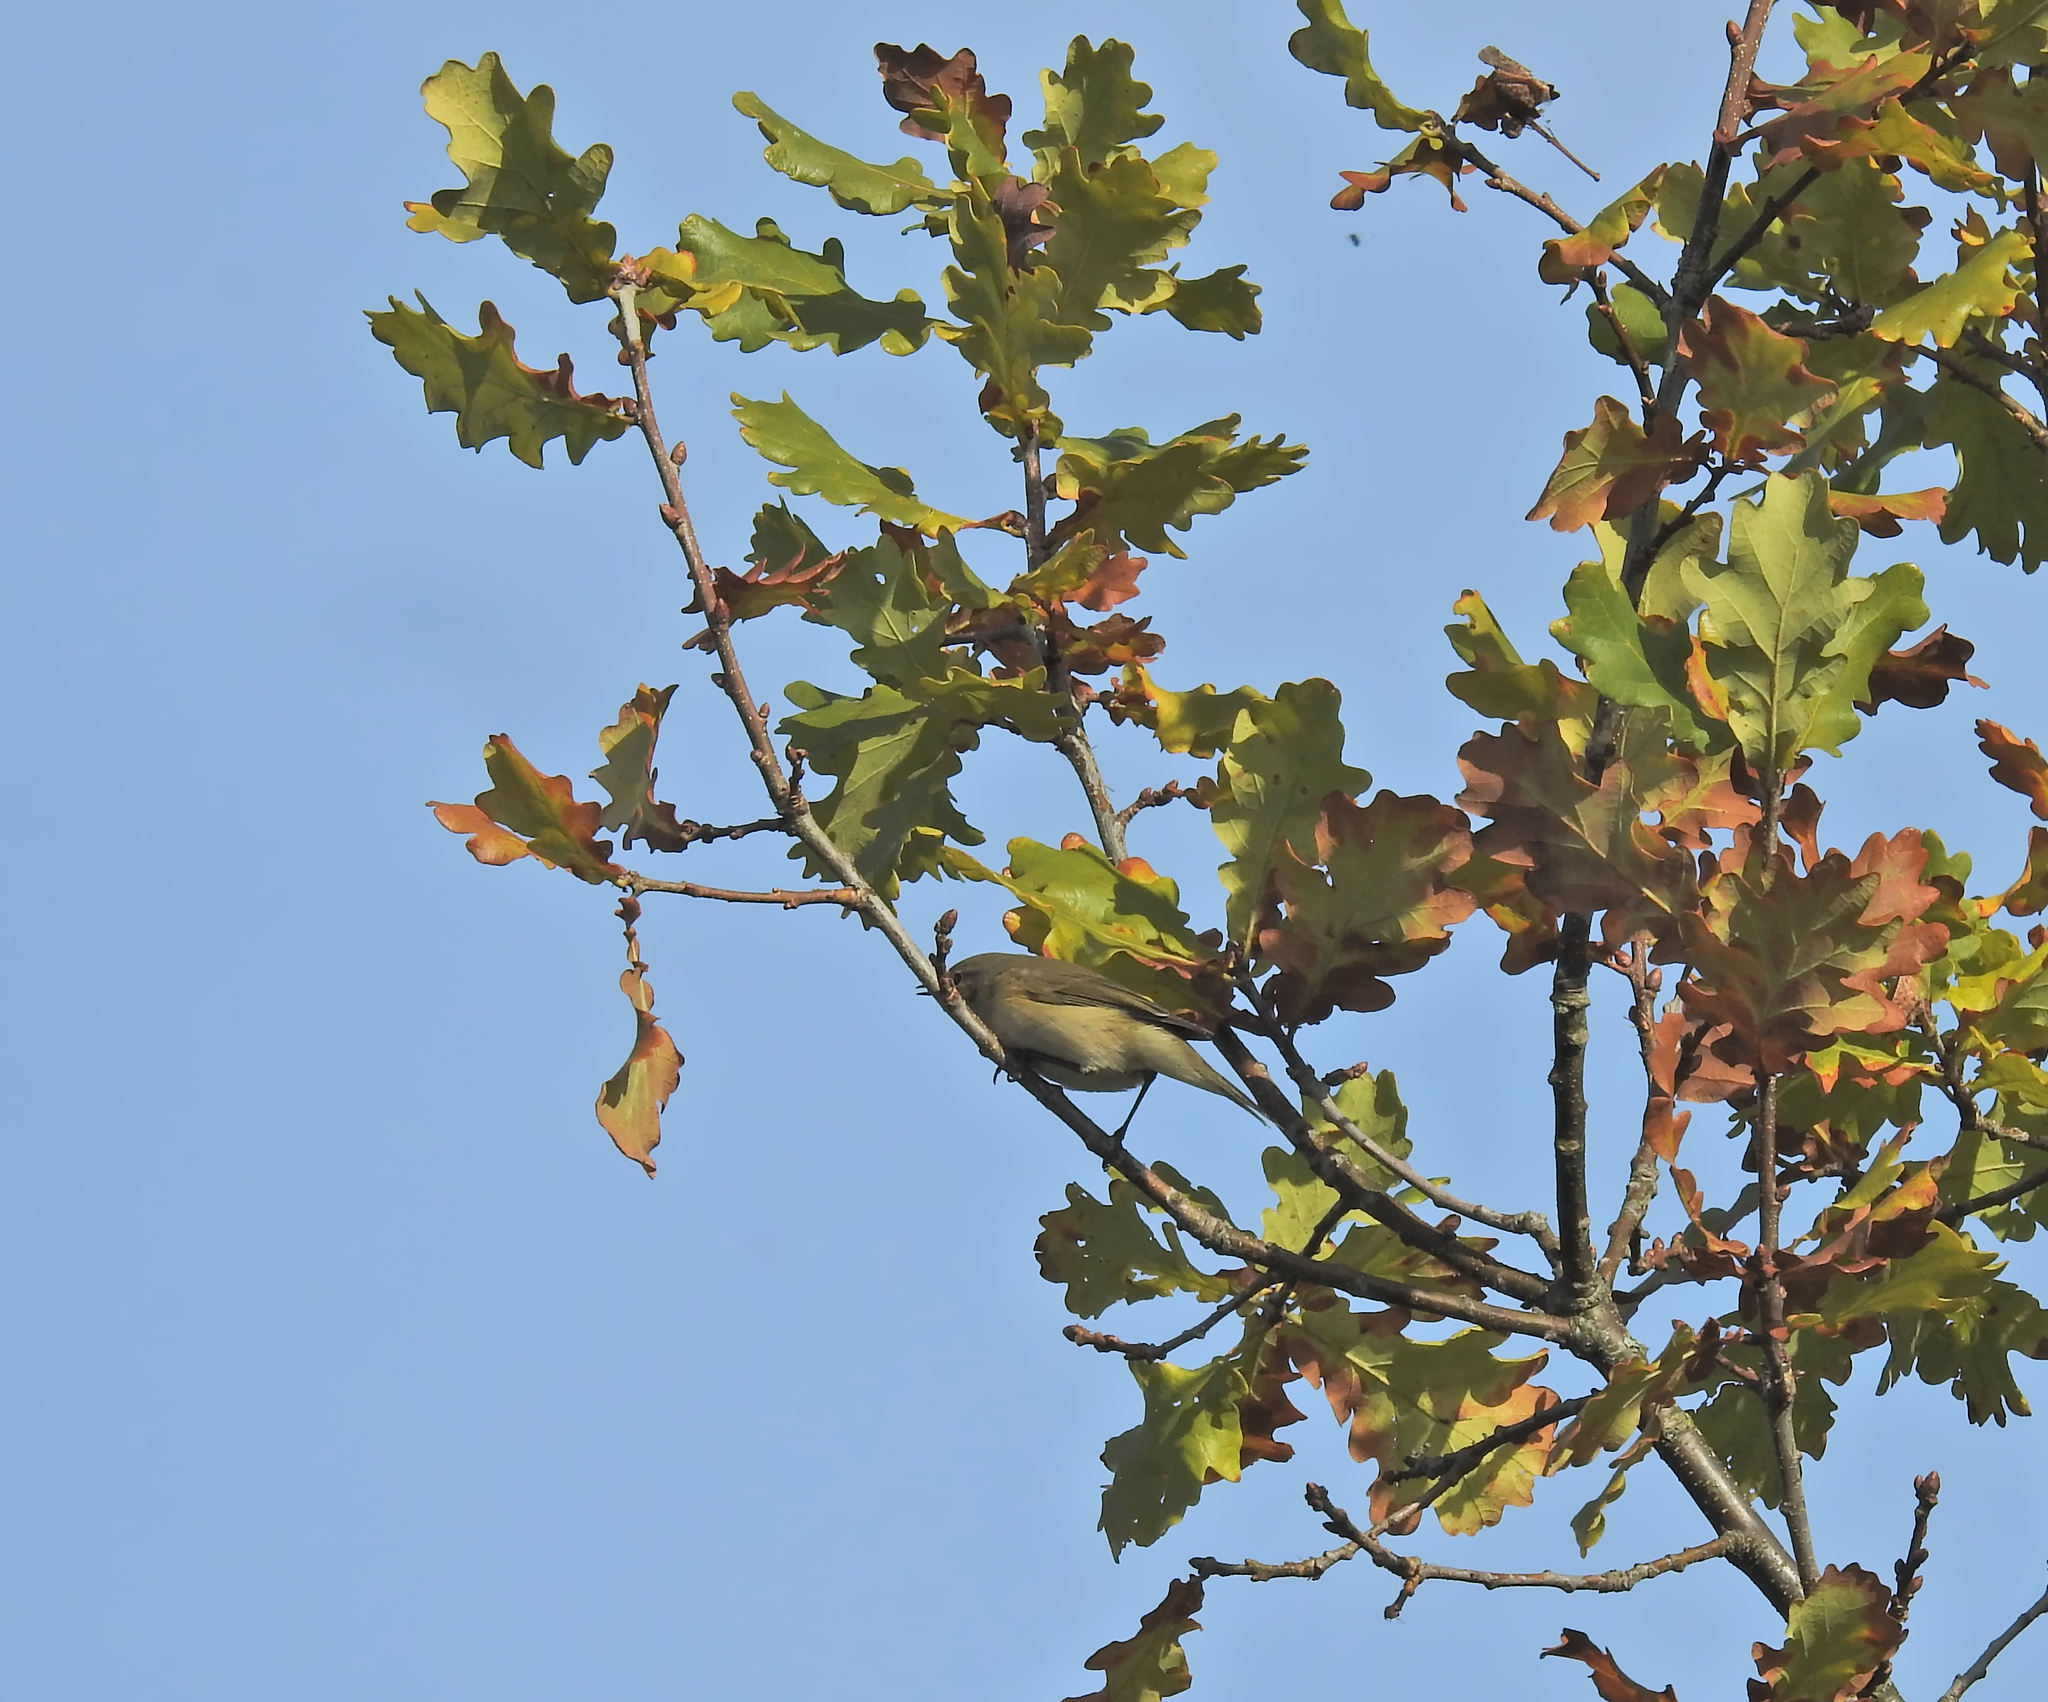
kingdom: Animalia
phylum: Chordata
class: Aves
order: Passeriformes
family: Phylloscopidae
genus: Phylloscopus
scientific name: Phylloscopus collybita
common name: Common chiffchaff
